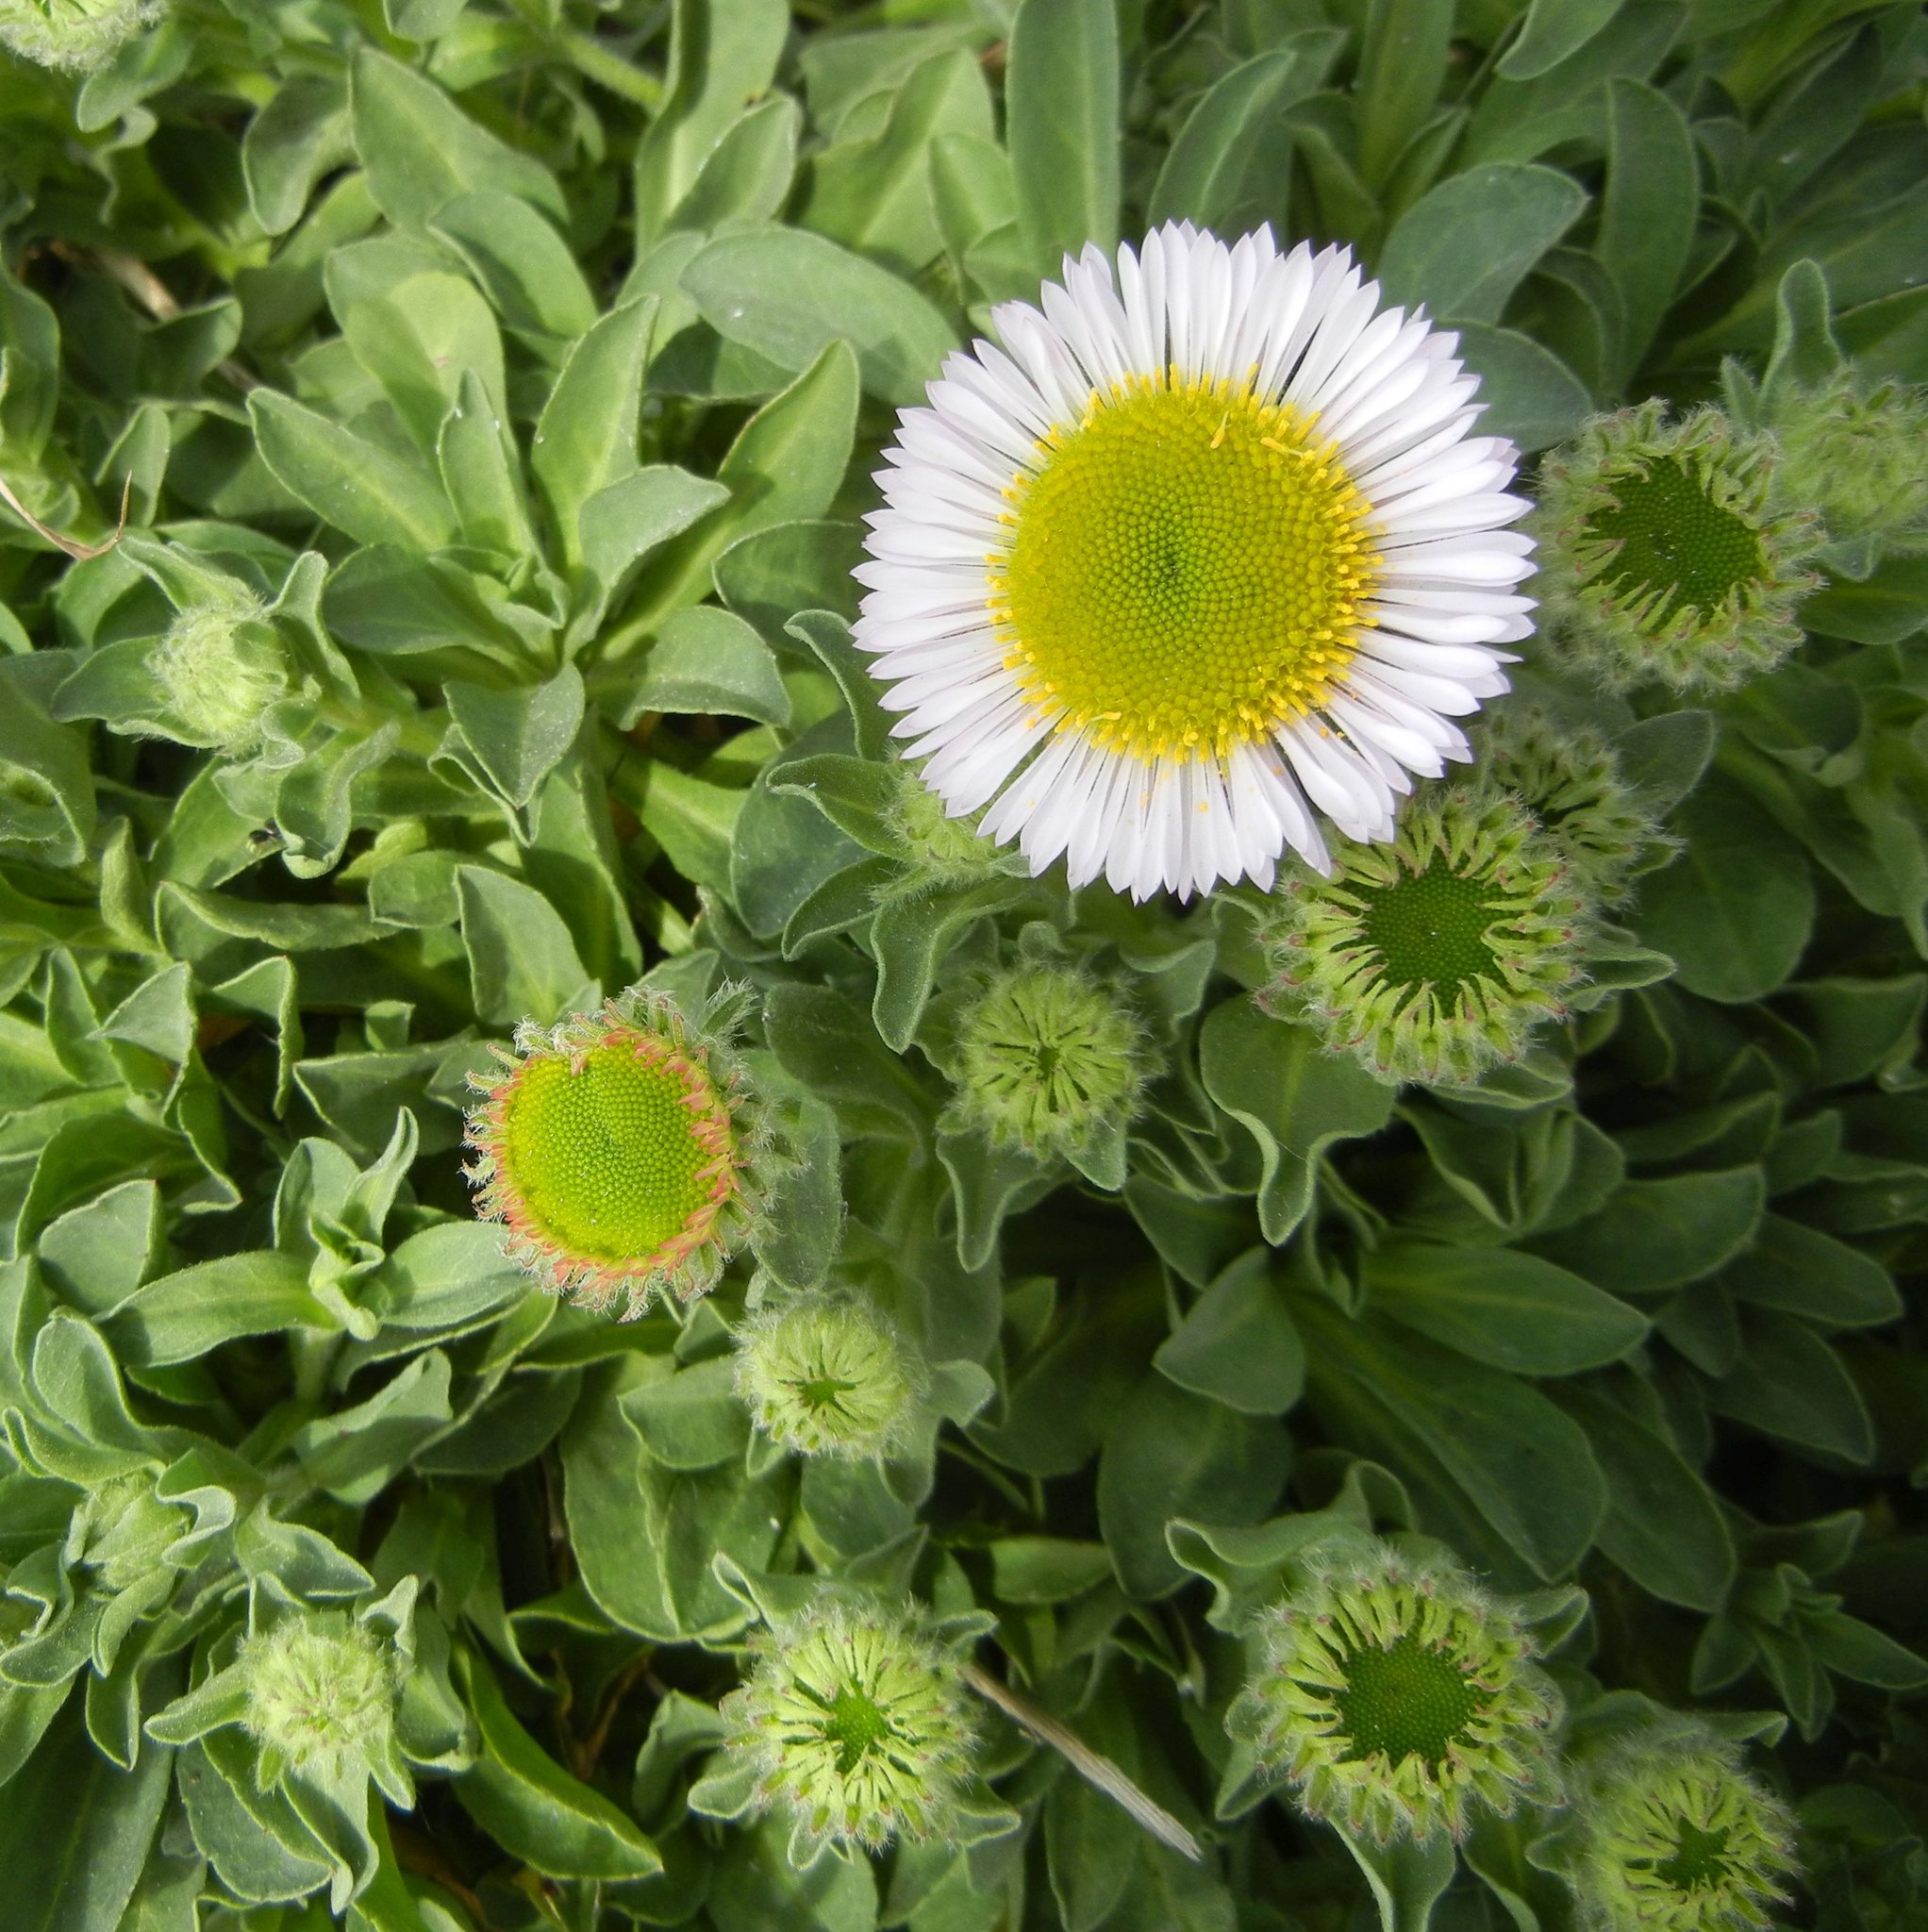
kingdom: Plantae
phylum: Tracheophyta
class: Magnoliopsida
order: Asterales
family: Asteraceae
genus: Erigeron
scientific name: Erigeron glaucus
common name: Seaside daisy
